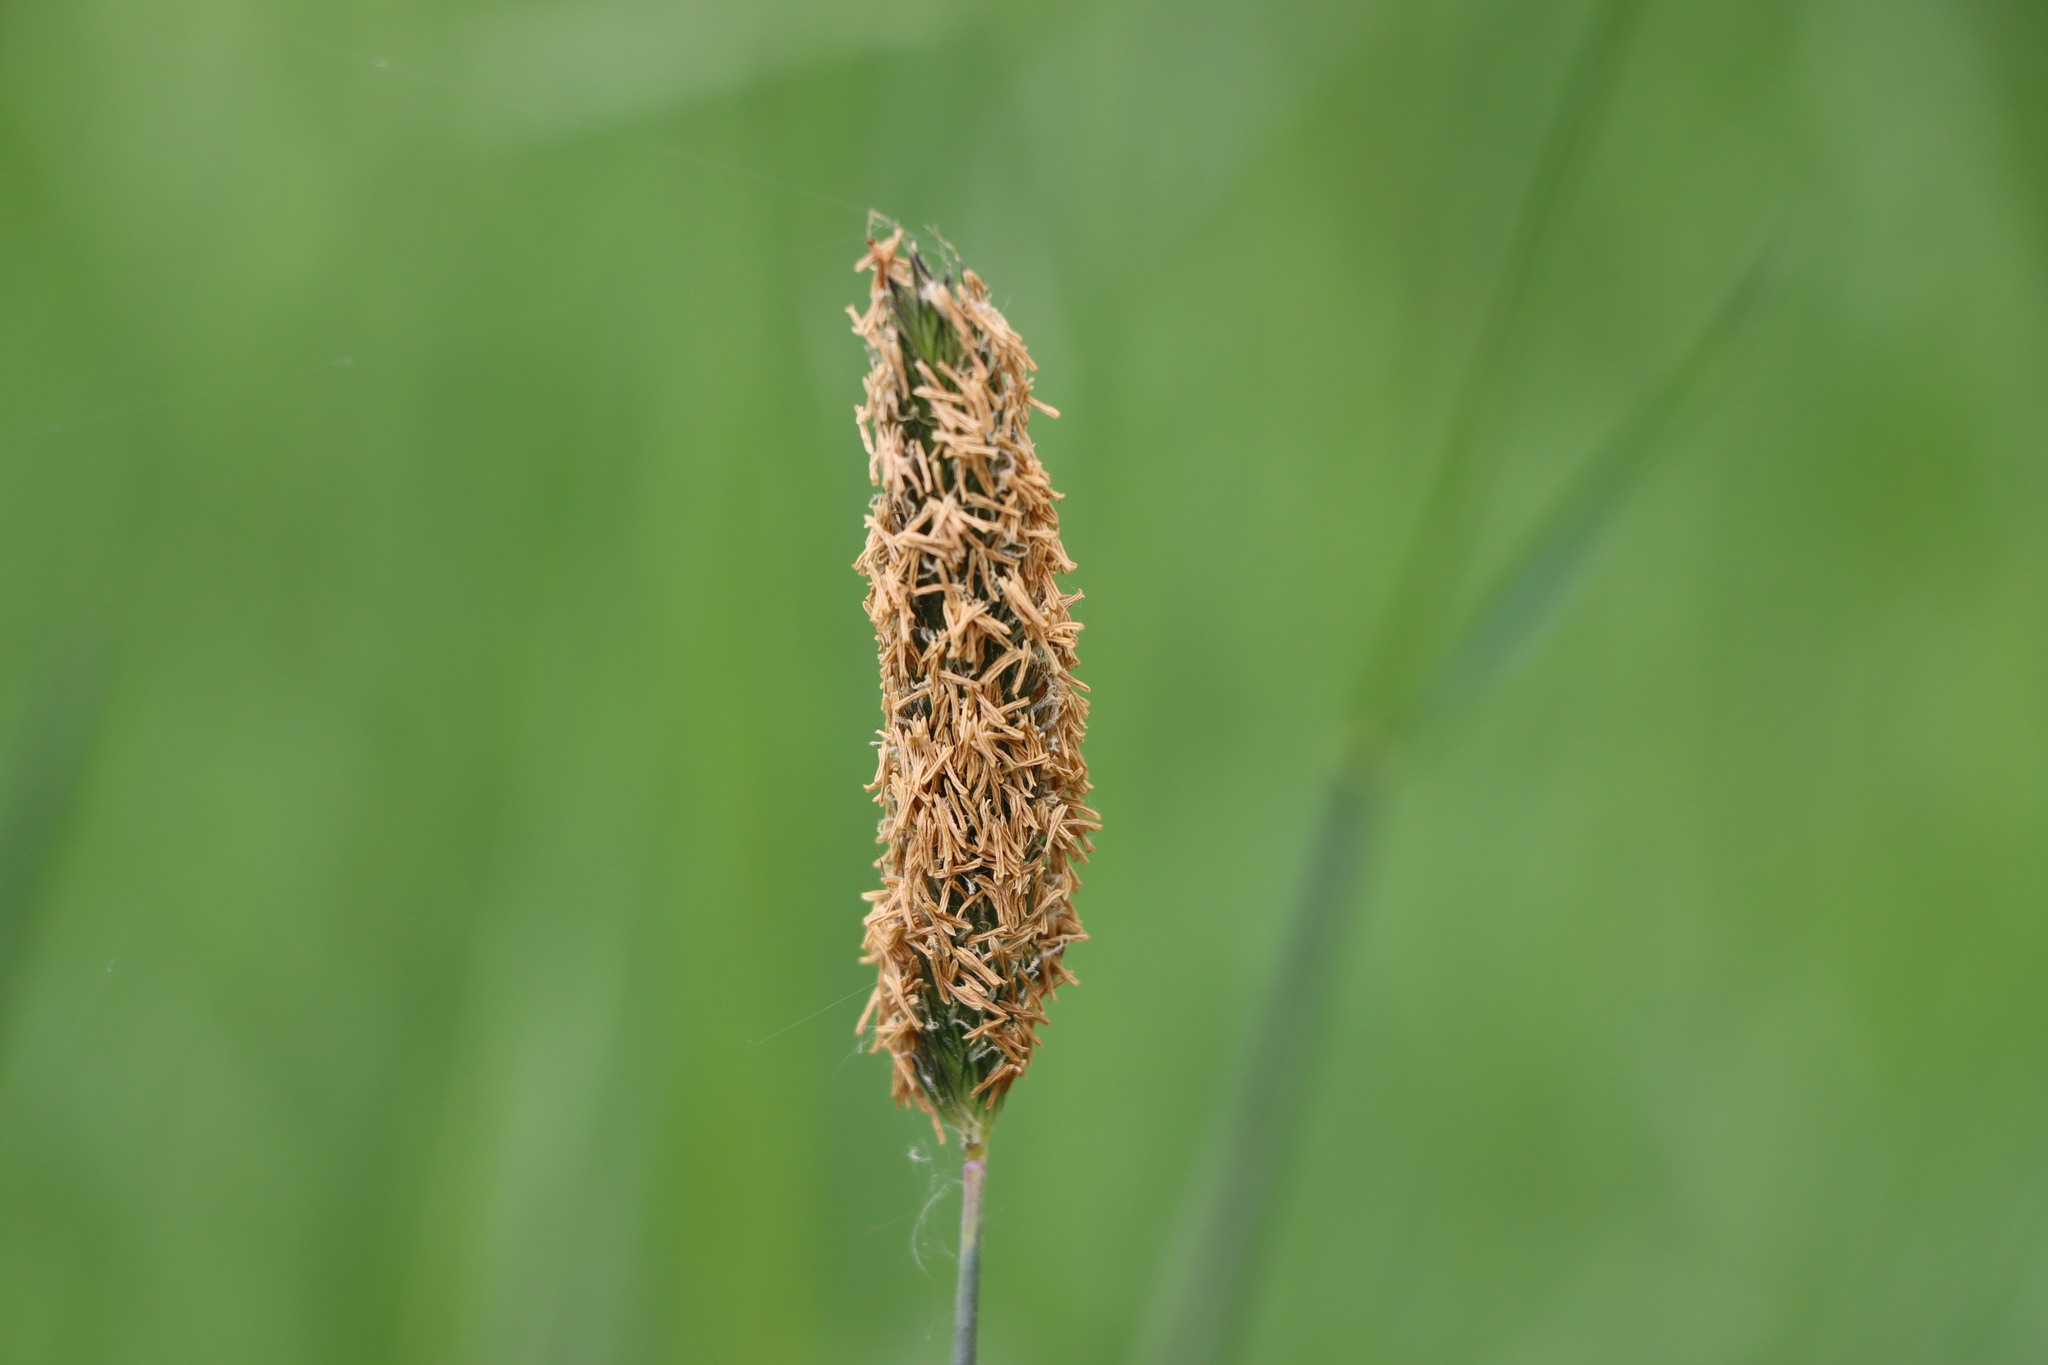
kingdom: Plantae
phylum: Tracheophyta
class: Liliopsida
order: Poales
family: Poaceae
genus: Alopecurus
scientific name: Alopecurus pratensis
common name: Meadow foxtail
